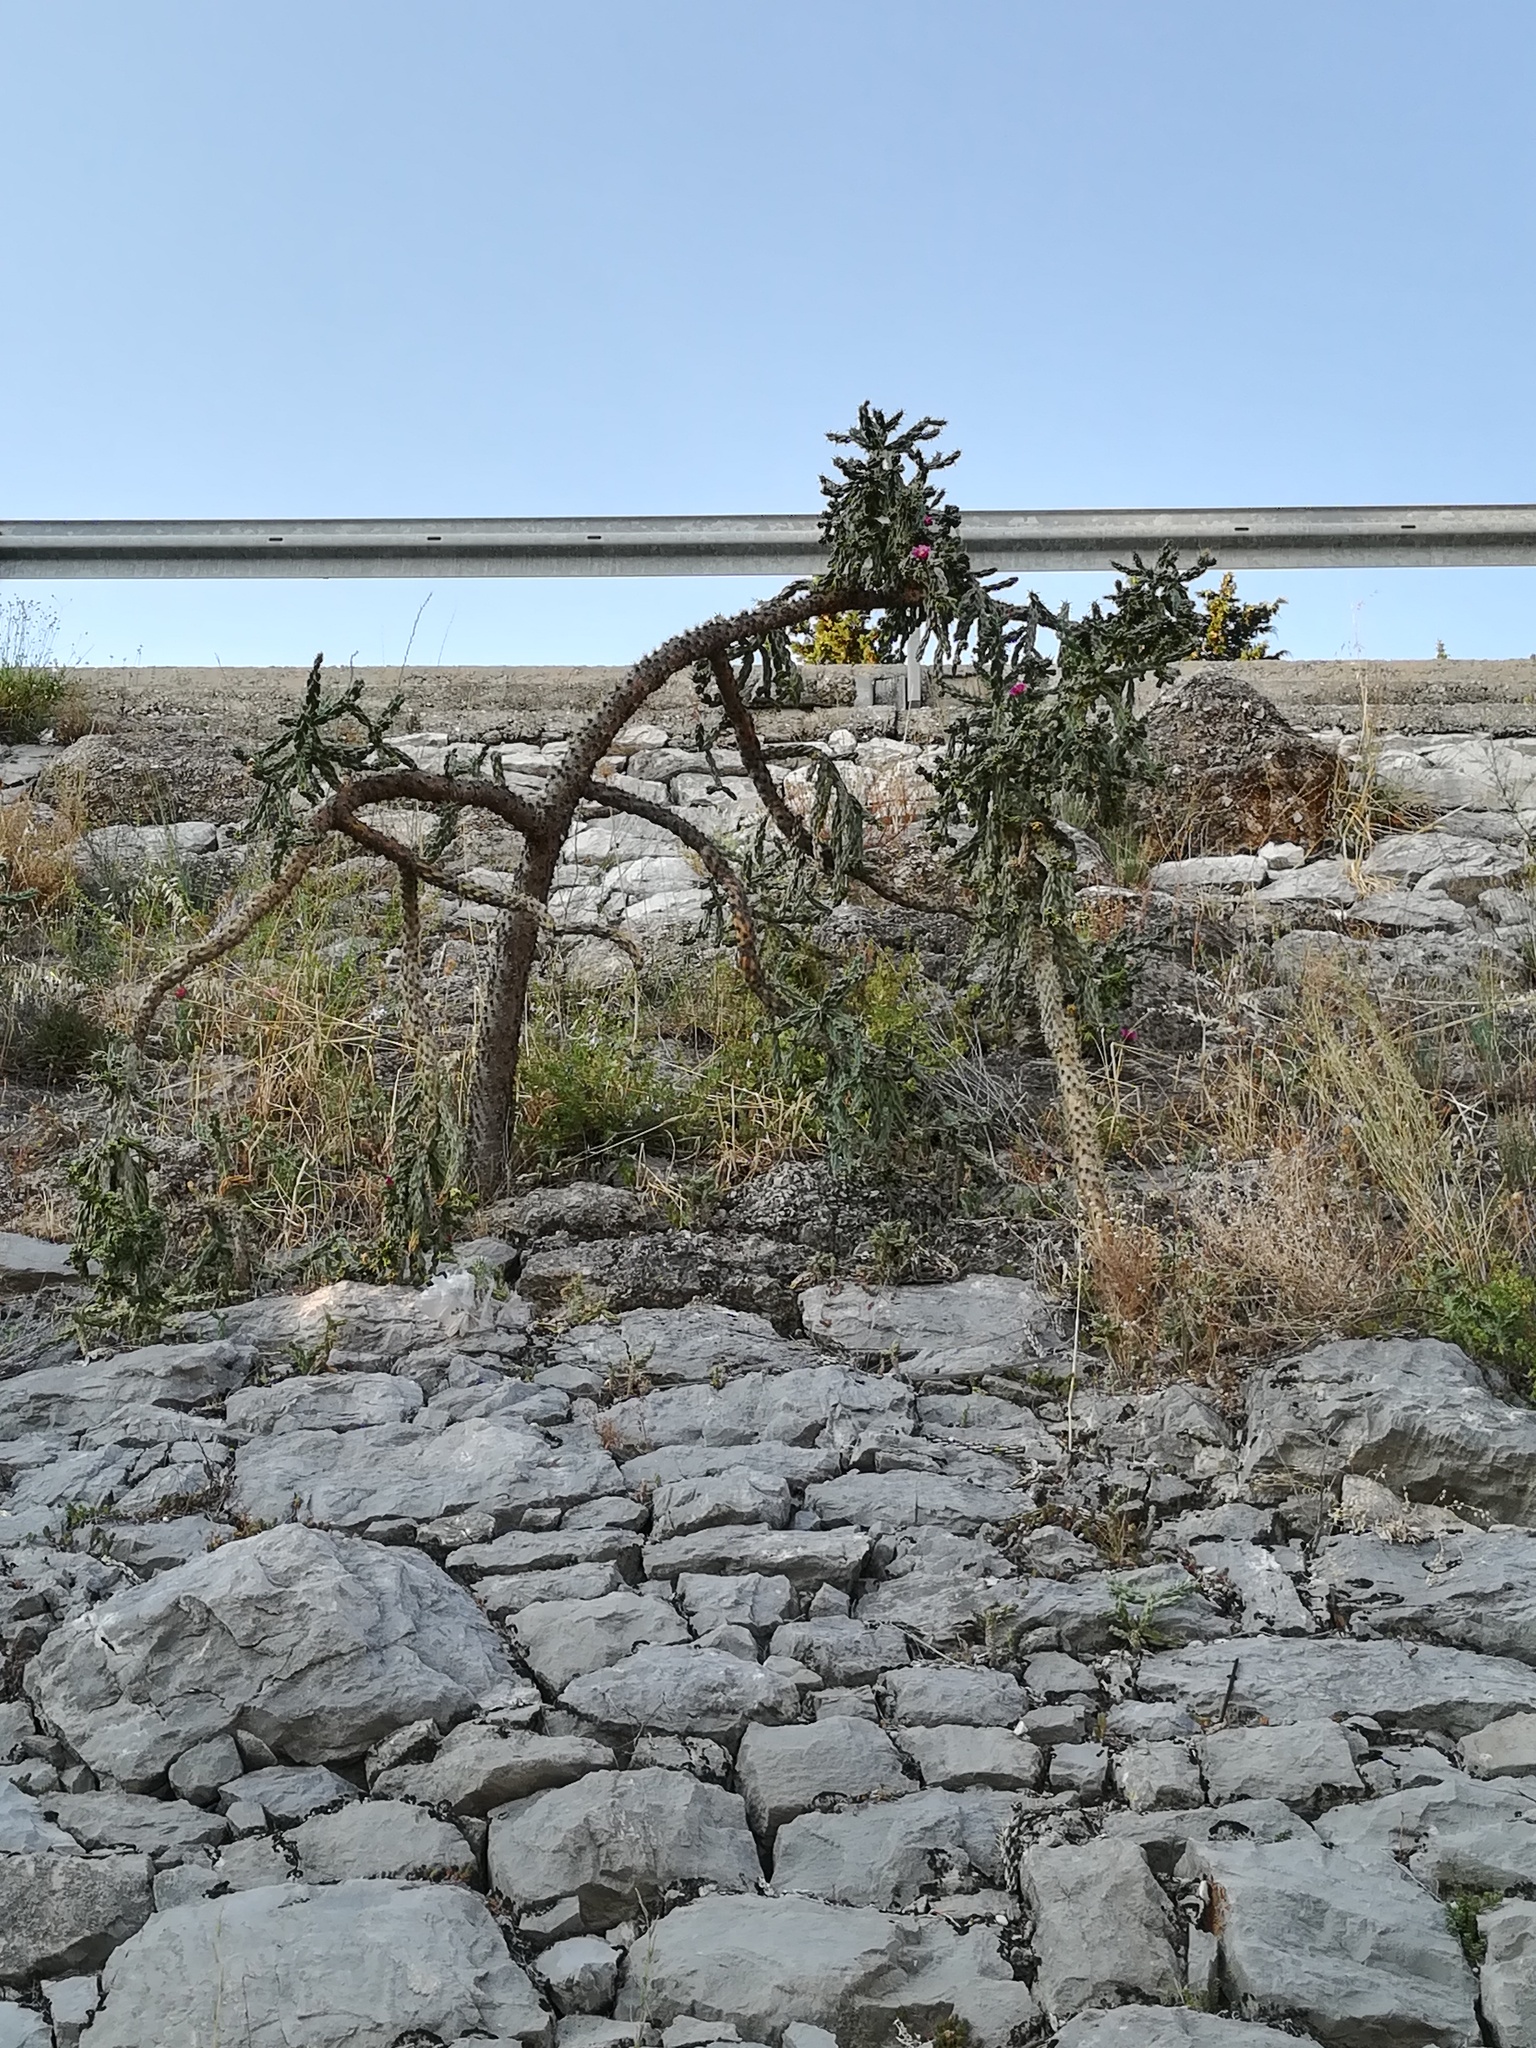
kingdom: Plantae
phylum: Tracheophyta
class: Magnoliopsida
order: Caryophyllales
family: Cactaceae
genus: Cylindropuntia
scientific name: Cylindropuntia imbricata
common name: Candelabrum cactus
